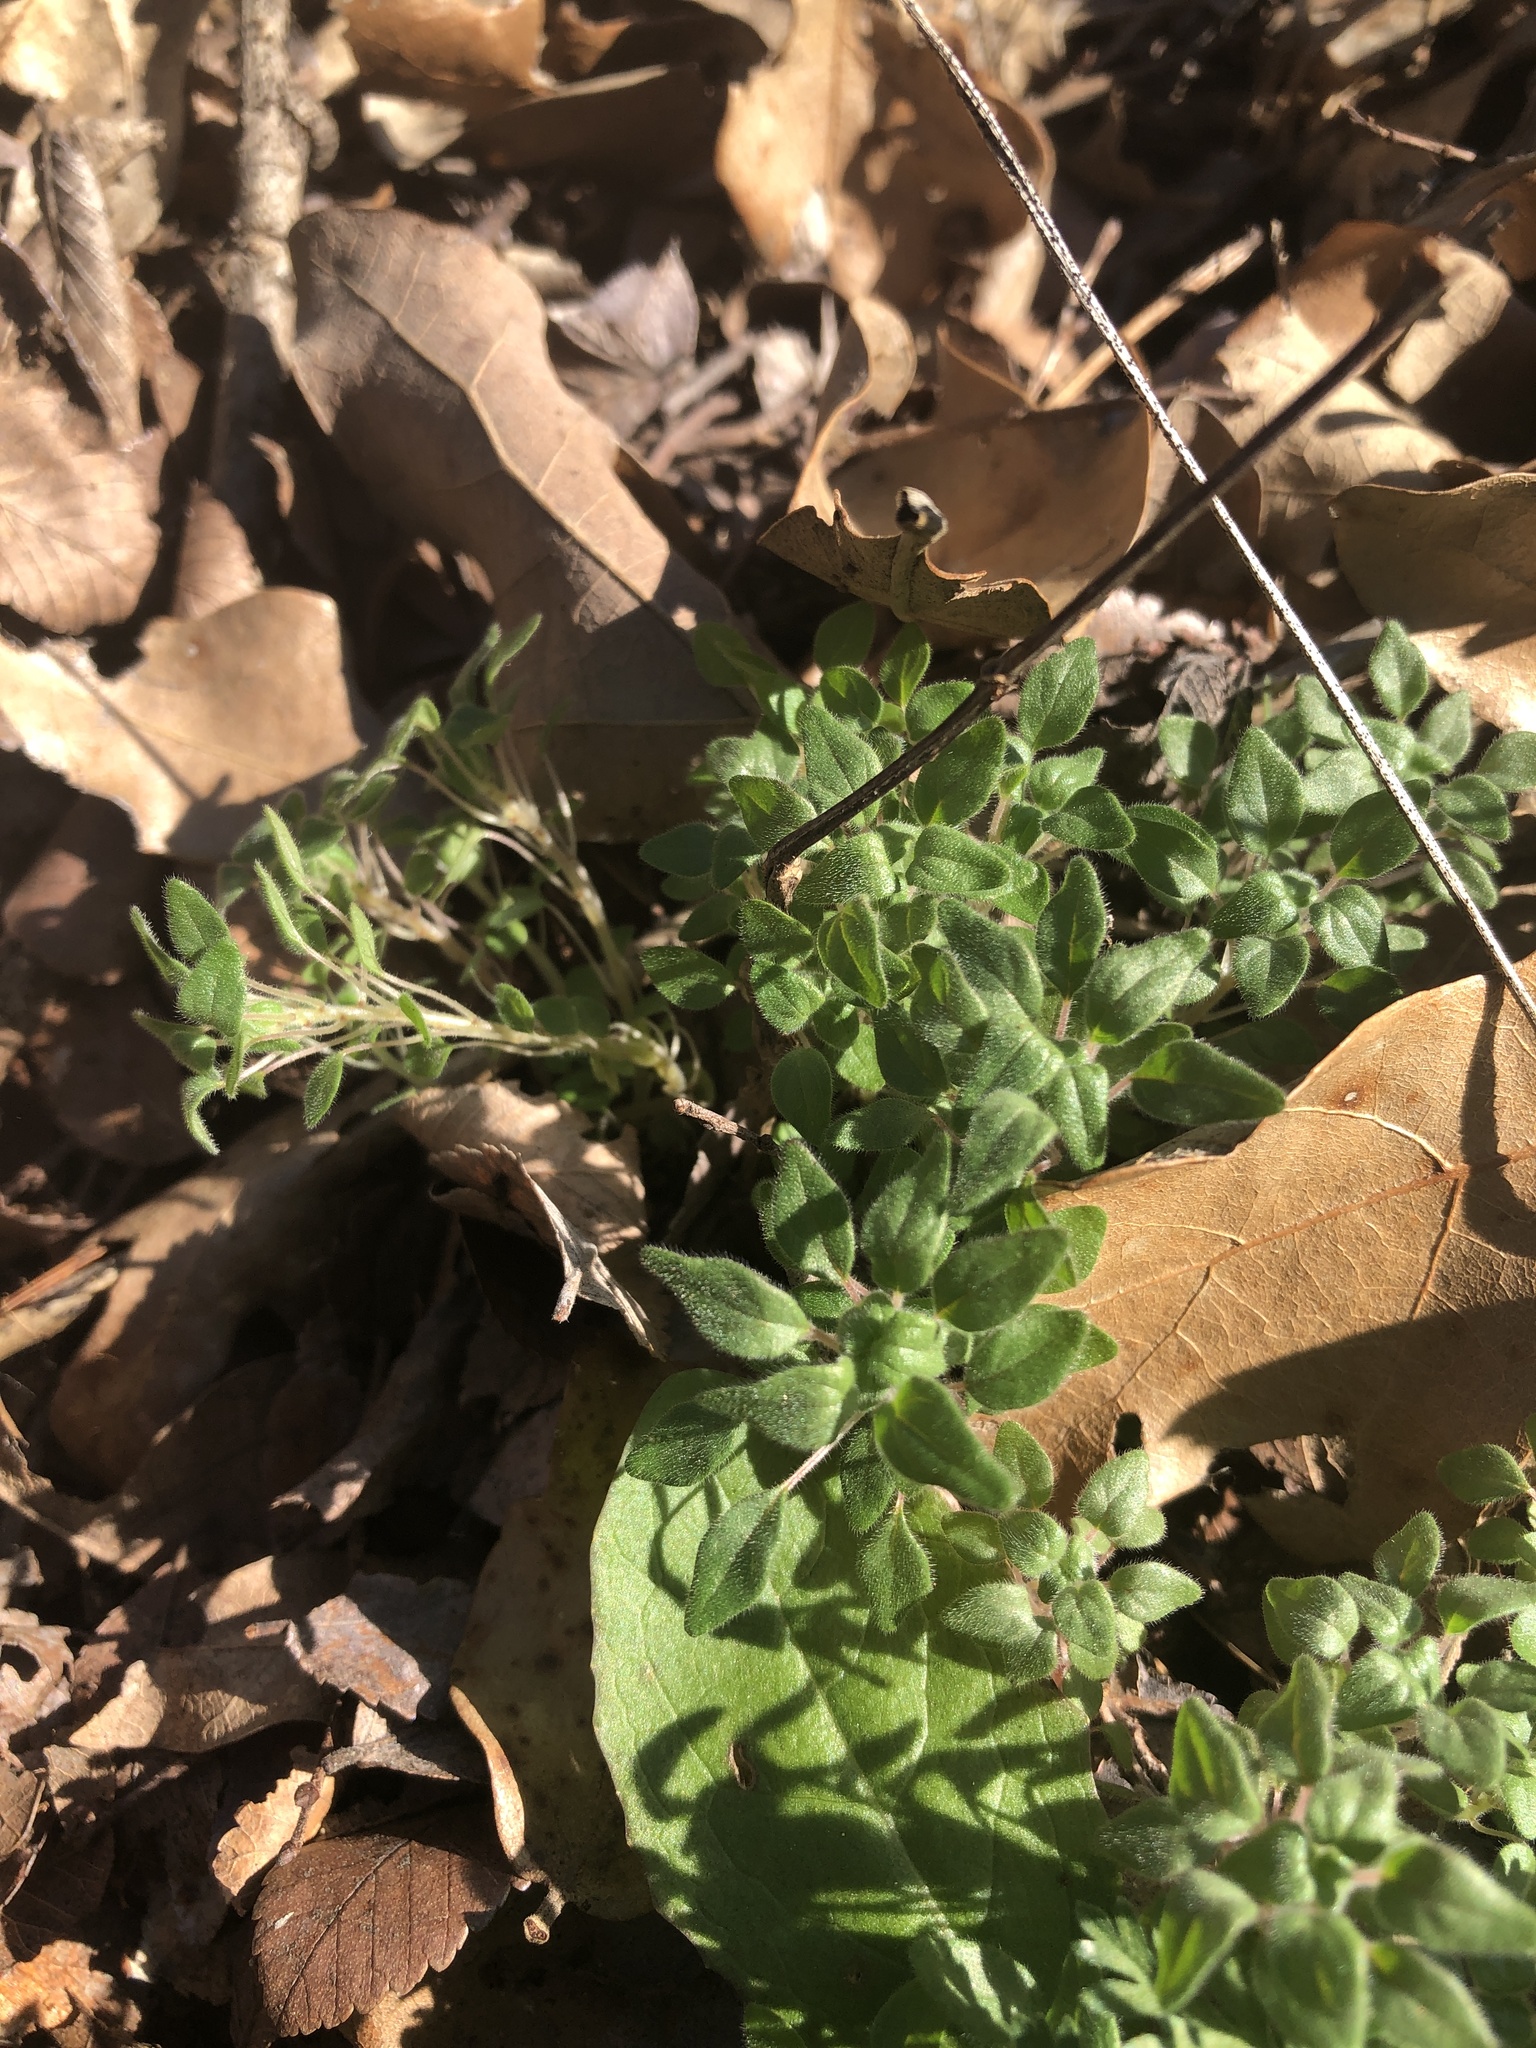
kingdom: Plantae
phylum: Tracheophyta
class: Magnoliopsida
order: Rosales
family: Urticaceae
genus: Parietaria
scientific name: Parietaria pensylvanica
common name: Pennsylvania pellitory
